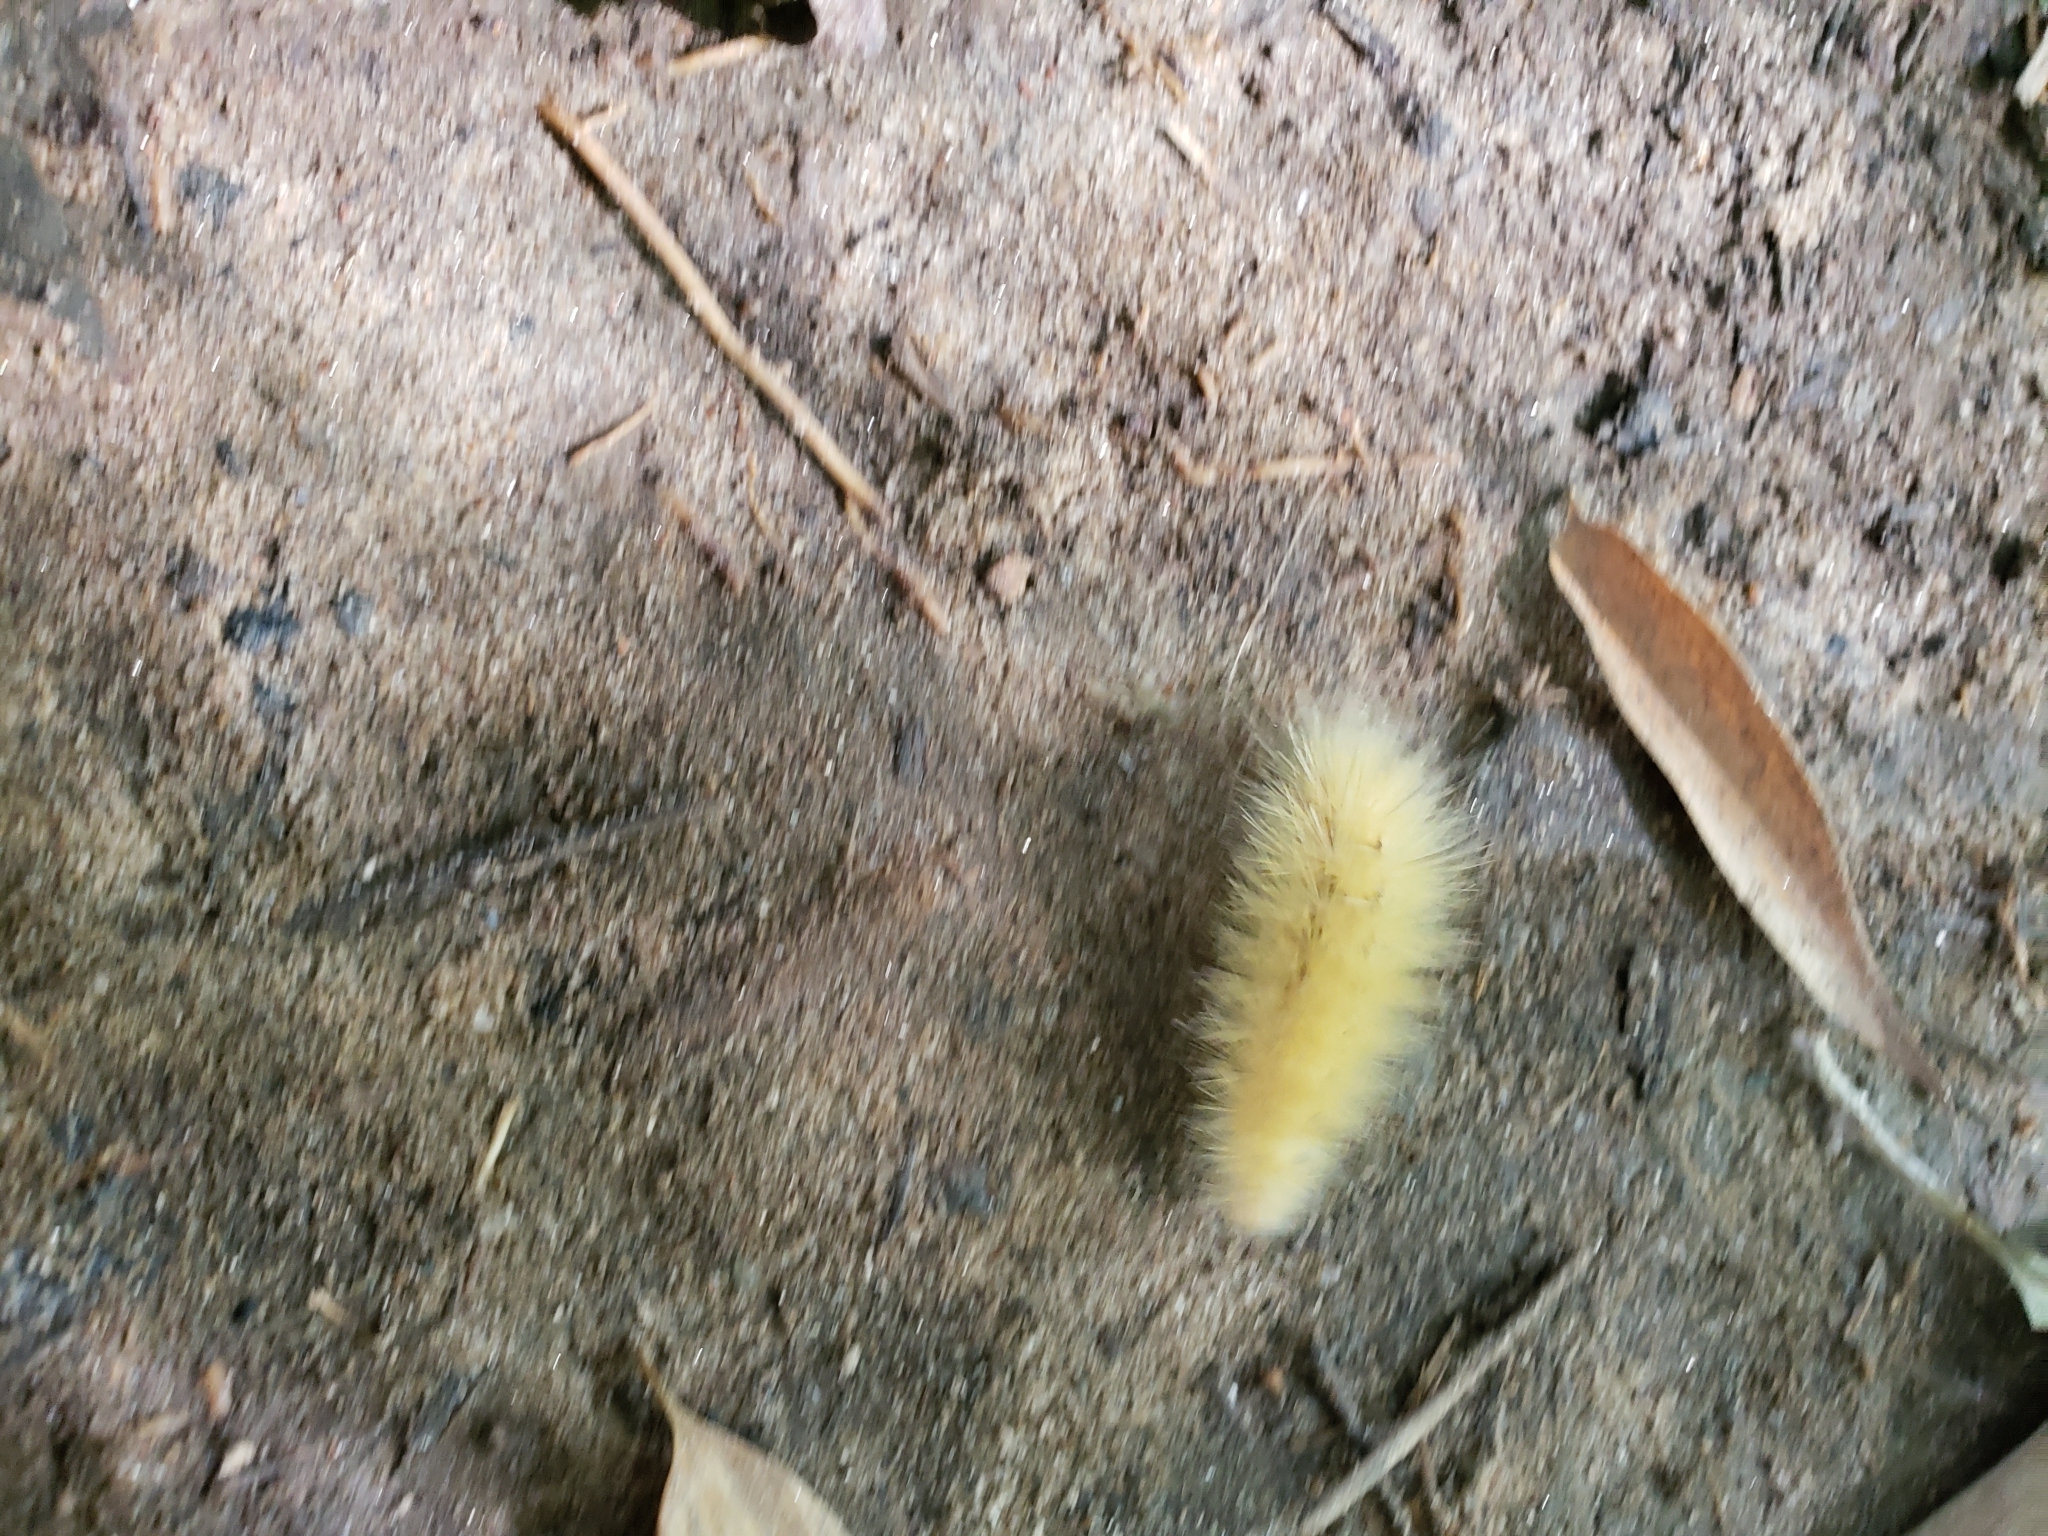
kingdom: Animalia
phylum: Arthropoda
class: Insecta
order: Lepidoptera
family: Erebidae
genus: Spilosoma
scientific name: Spilosoma virginica
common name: Virginia tiger moth
